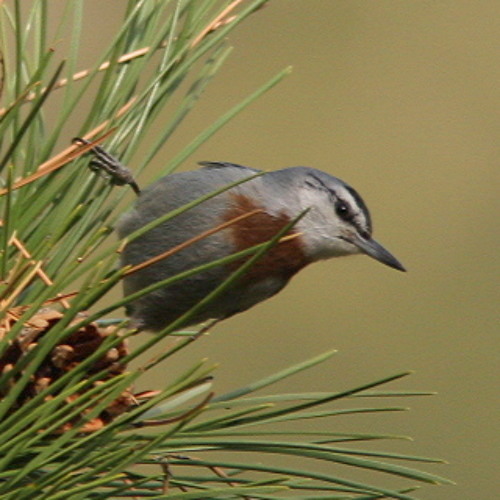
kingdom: Animalia
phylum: Chordata
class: Aves
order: Passeriformes
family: Sittidae
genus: Sitta
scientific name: Sitta krueperi
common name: Krüper's nuthatch
